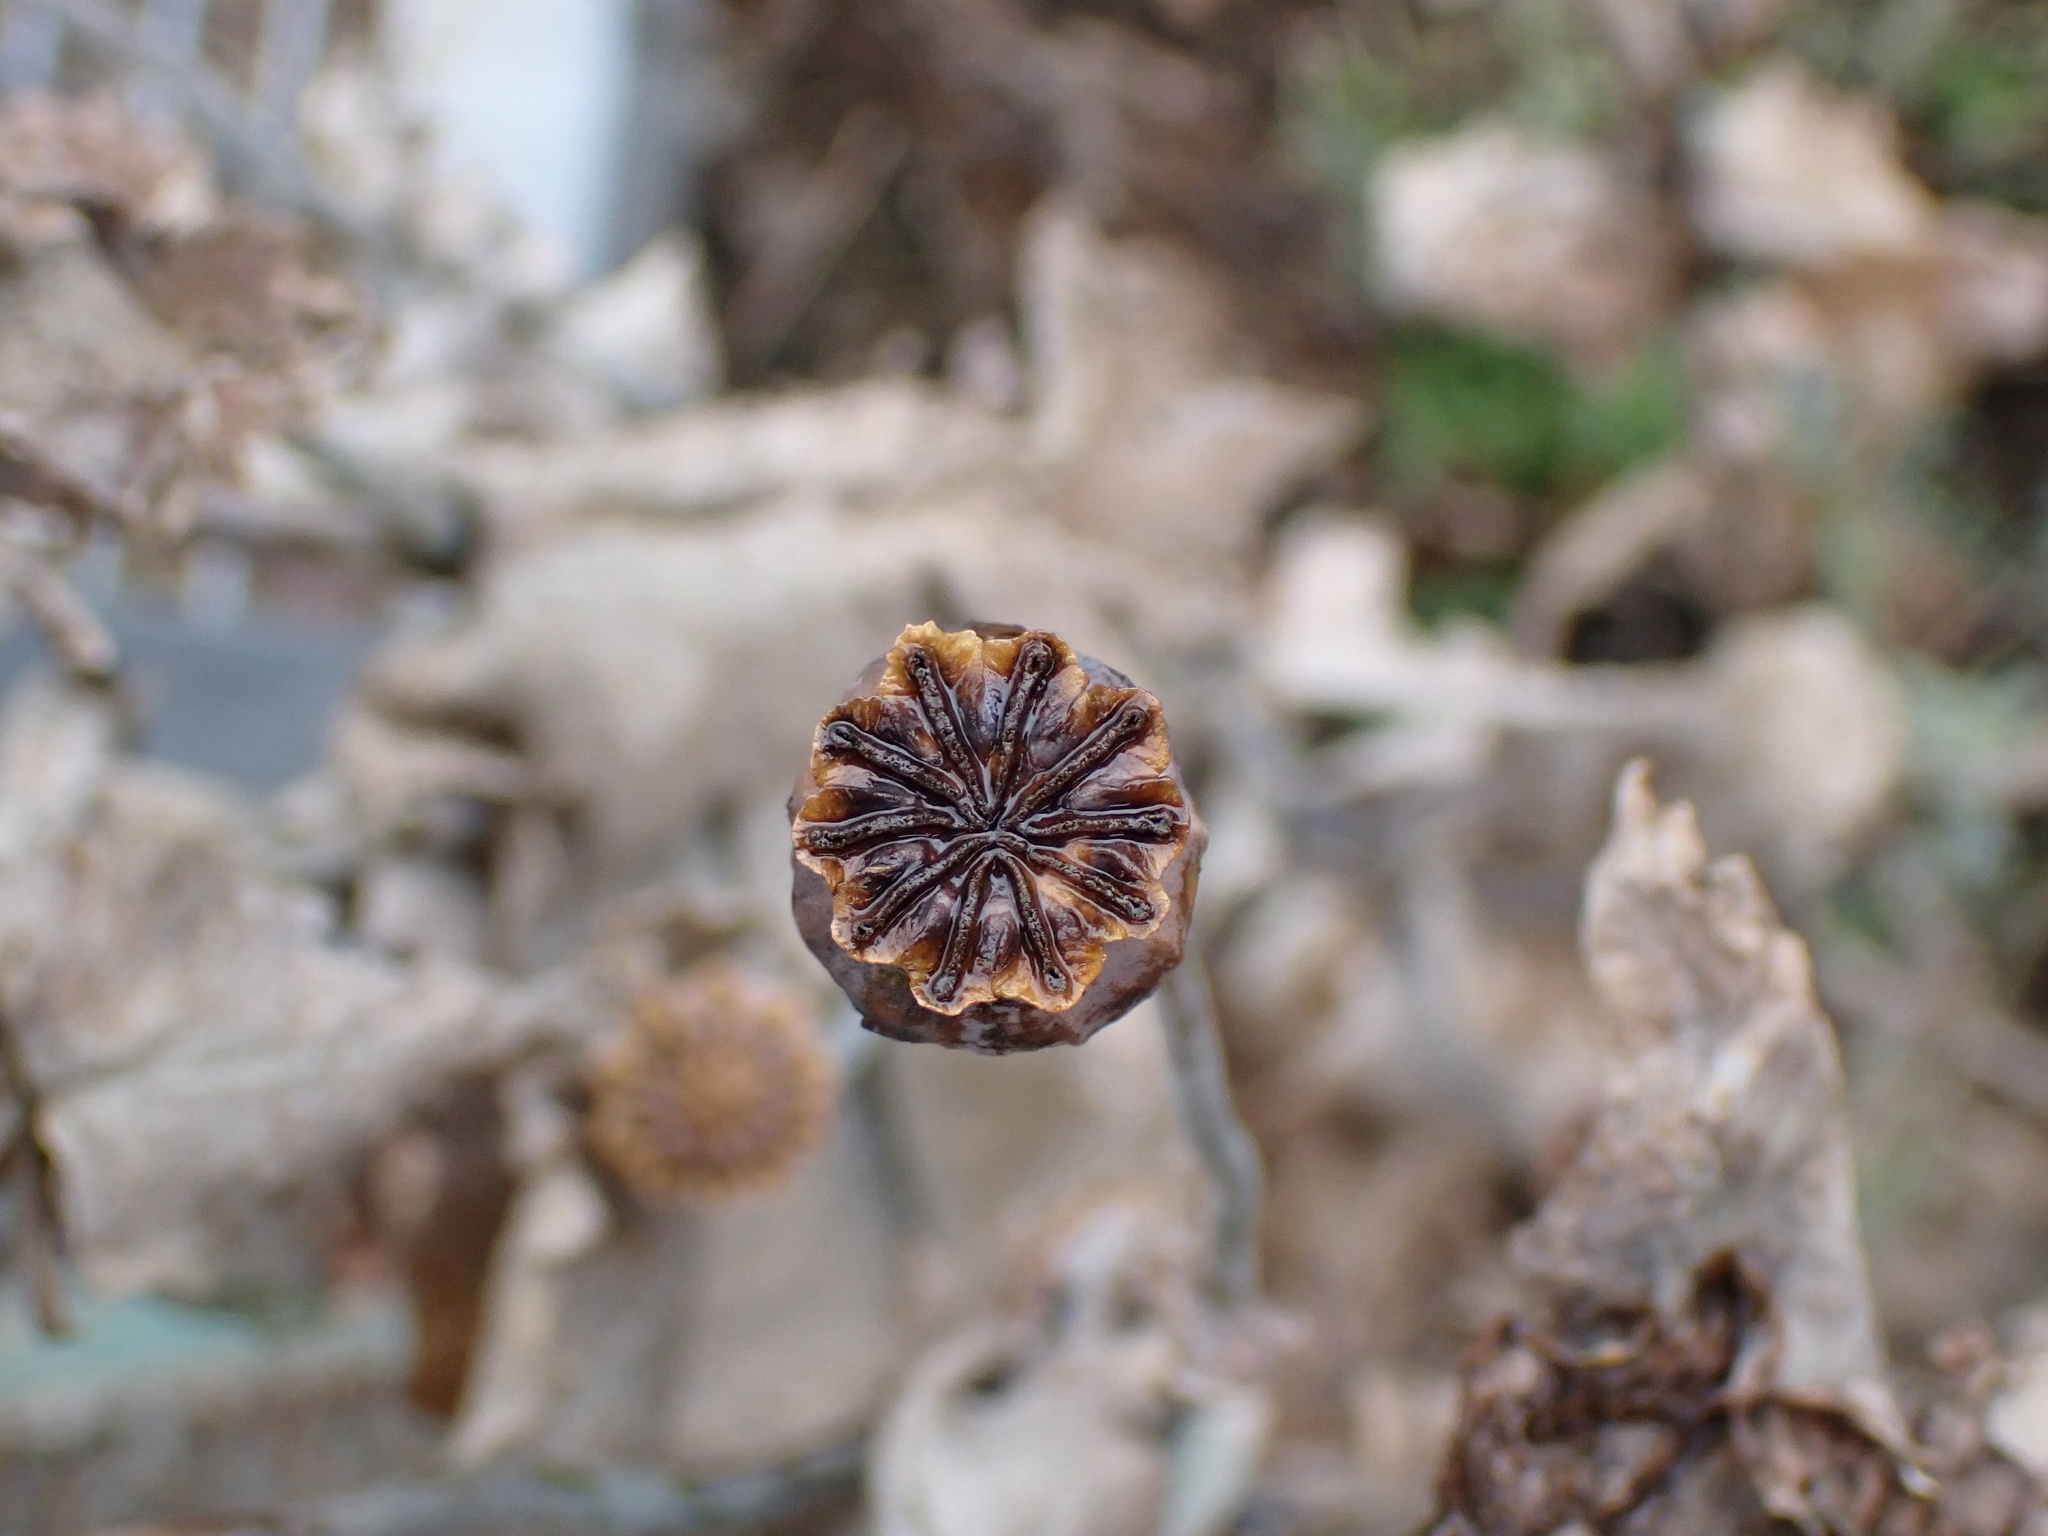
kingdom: Plantae
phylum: Tracheophyta
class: Magnoliopsida
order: Ranunculales
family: Papaveraceae
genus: Papaver
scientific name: Papaver somniferum
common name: Opium poppy
